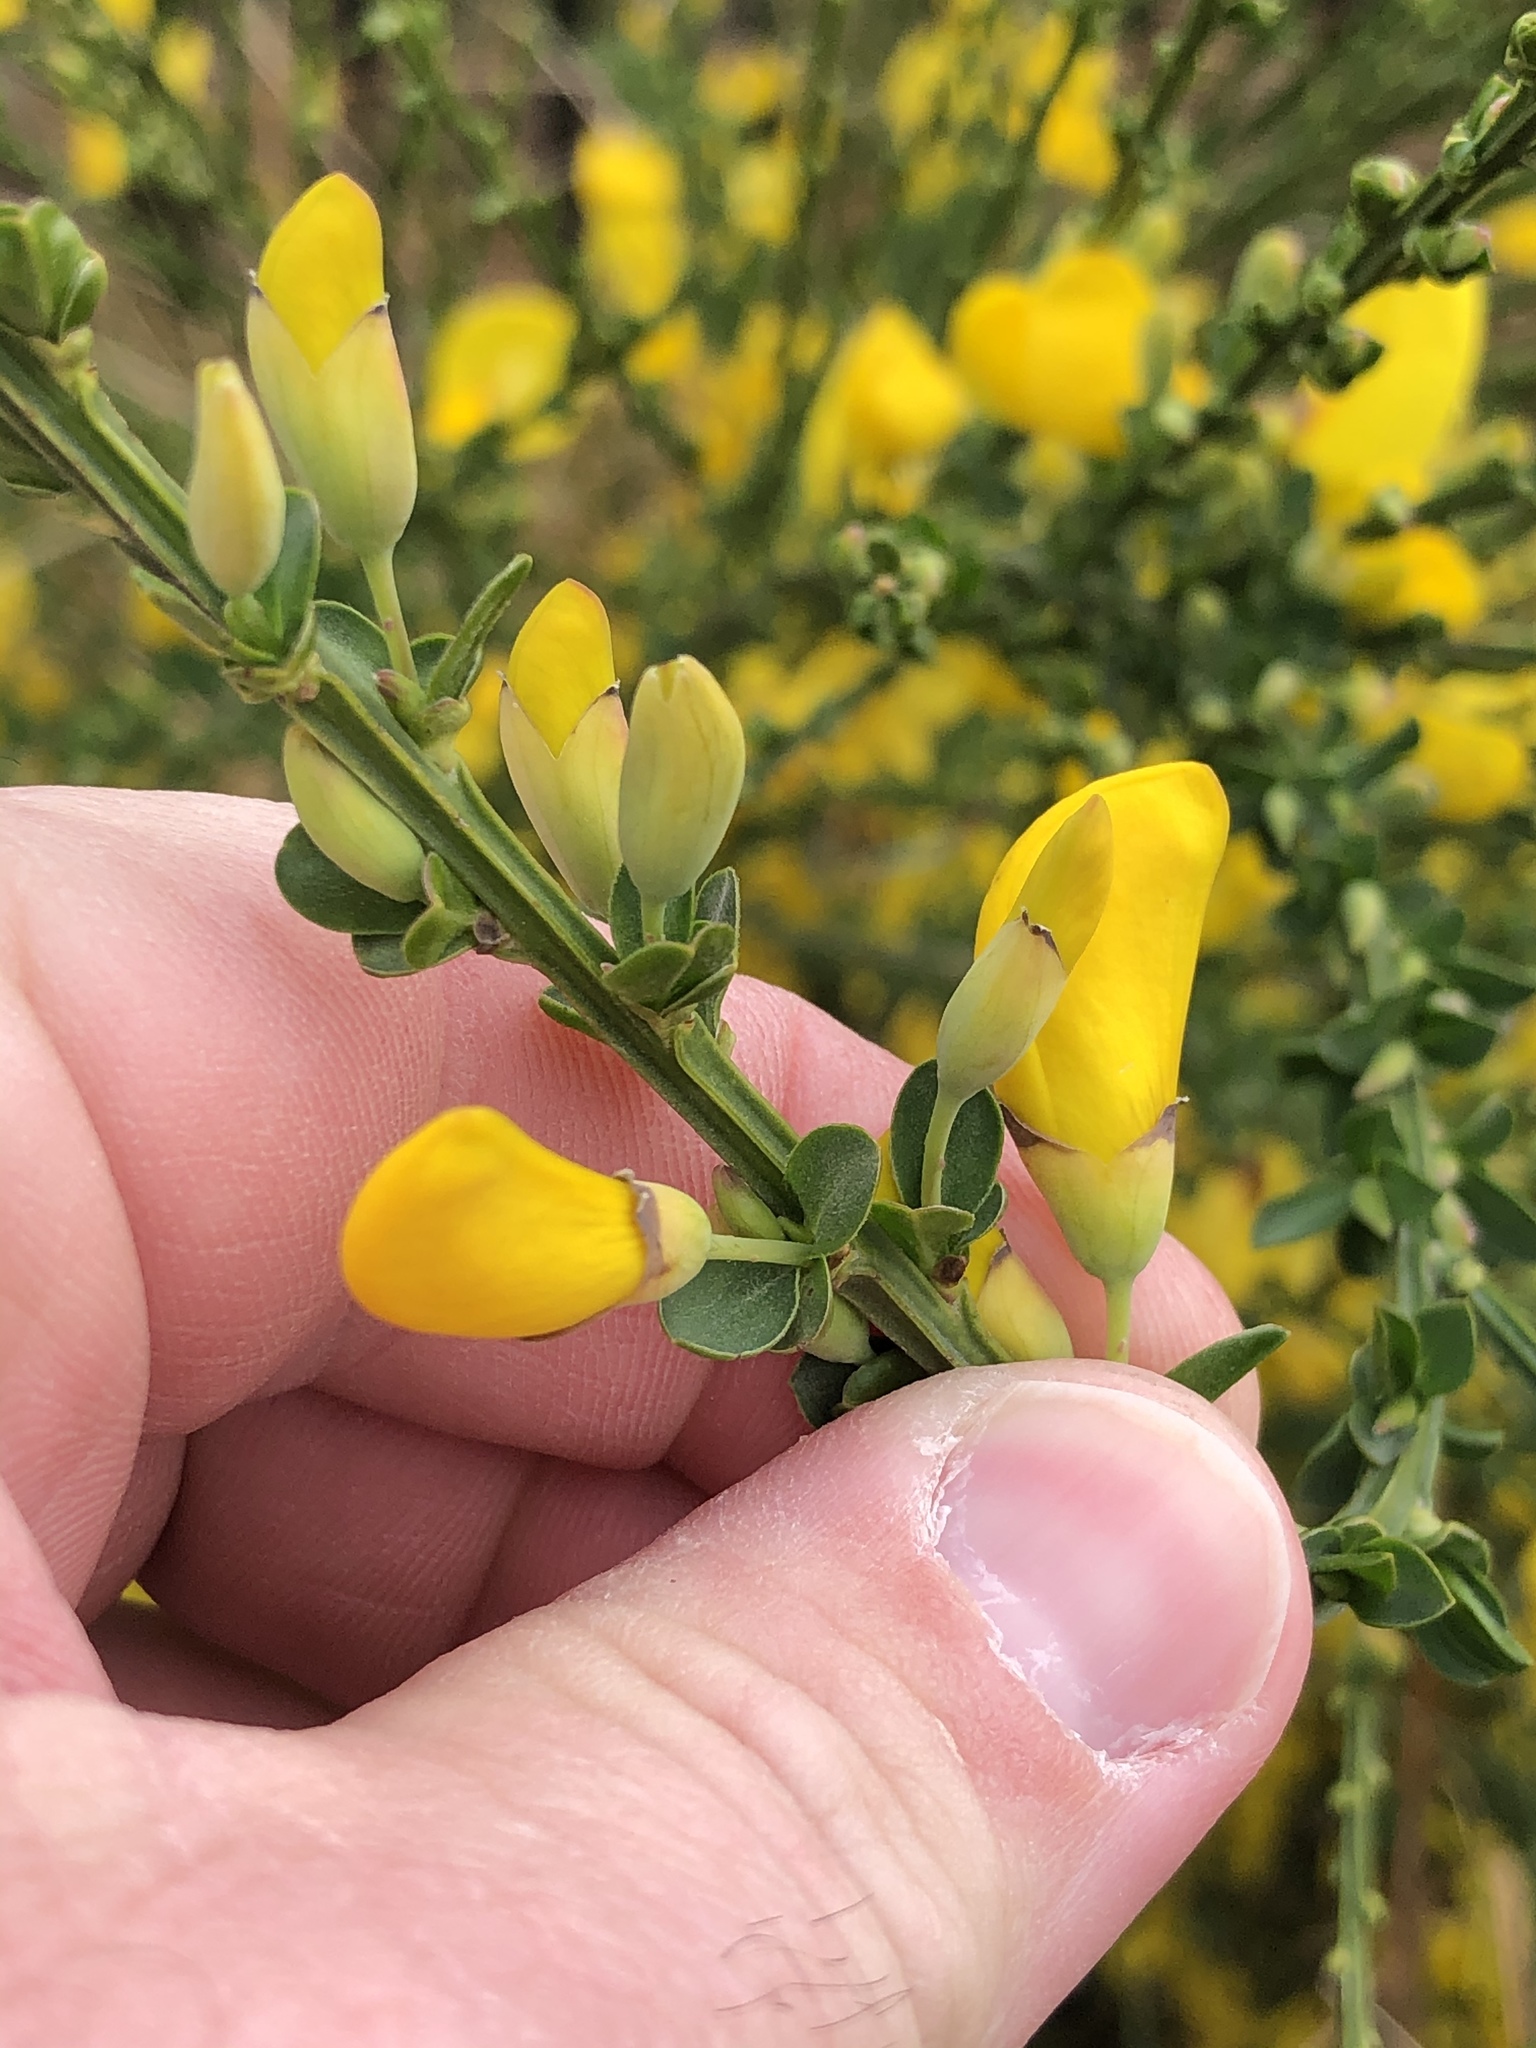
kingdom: Plantae
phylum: Tracheophyta
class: Magnoliopsida
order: Fabales
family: Fabaceae
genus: Cytisus
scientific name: Cytisus scoparius
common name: Scotch broom
